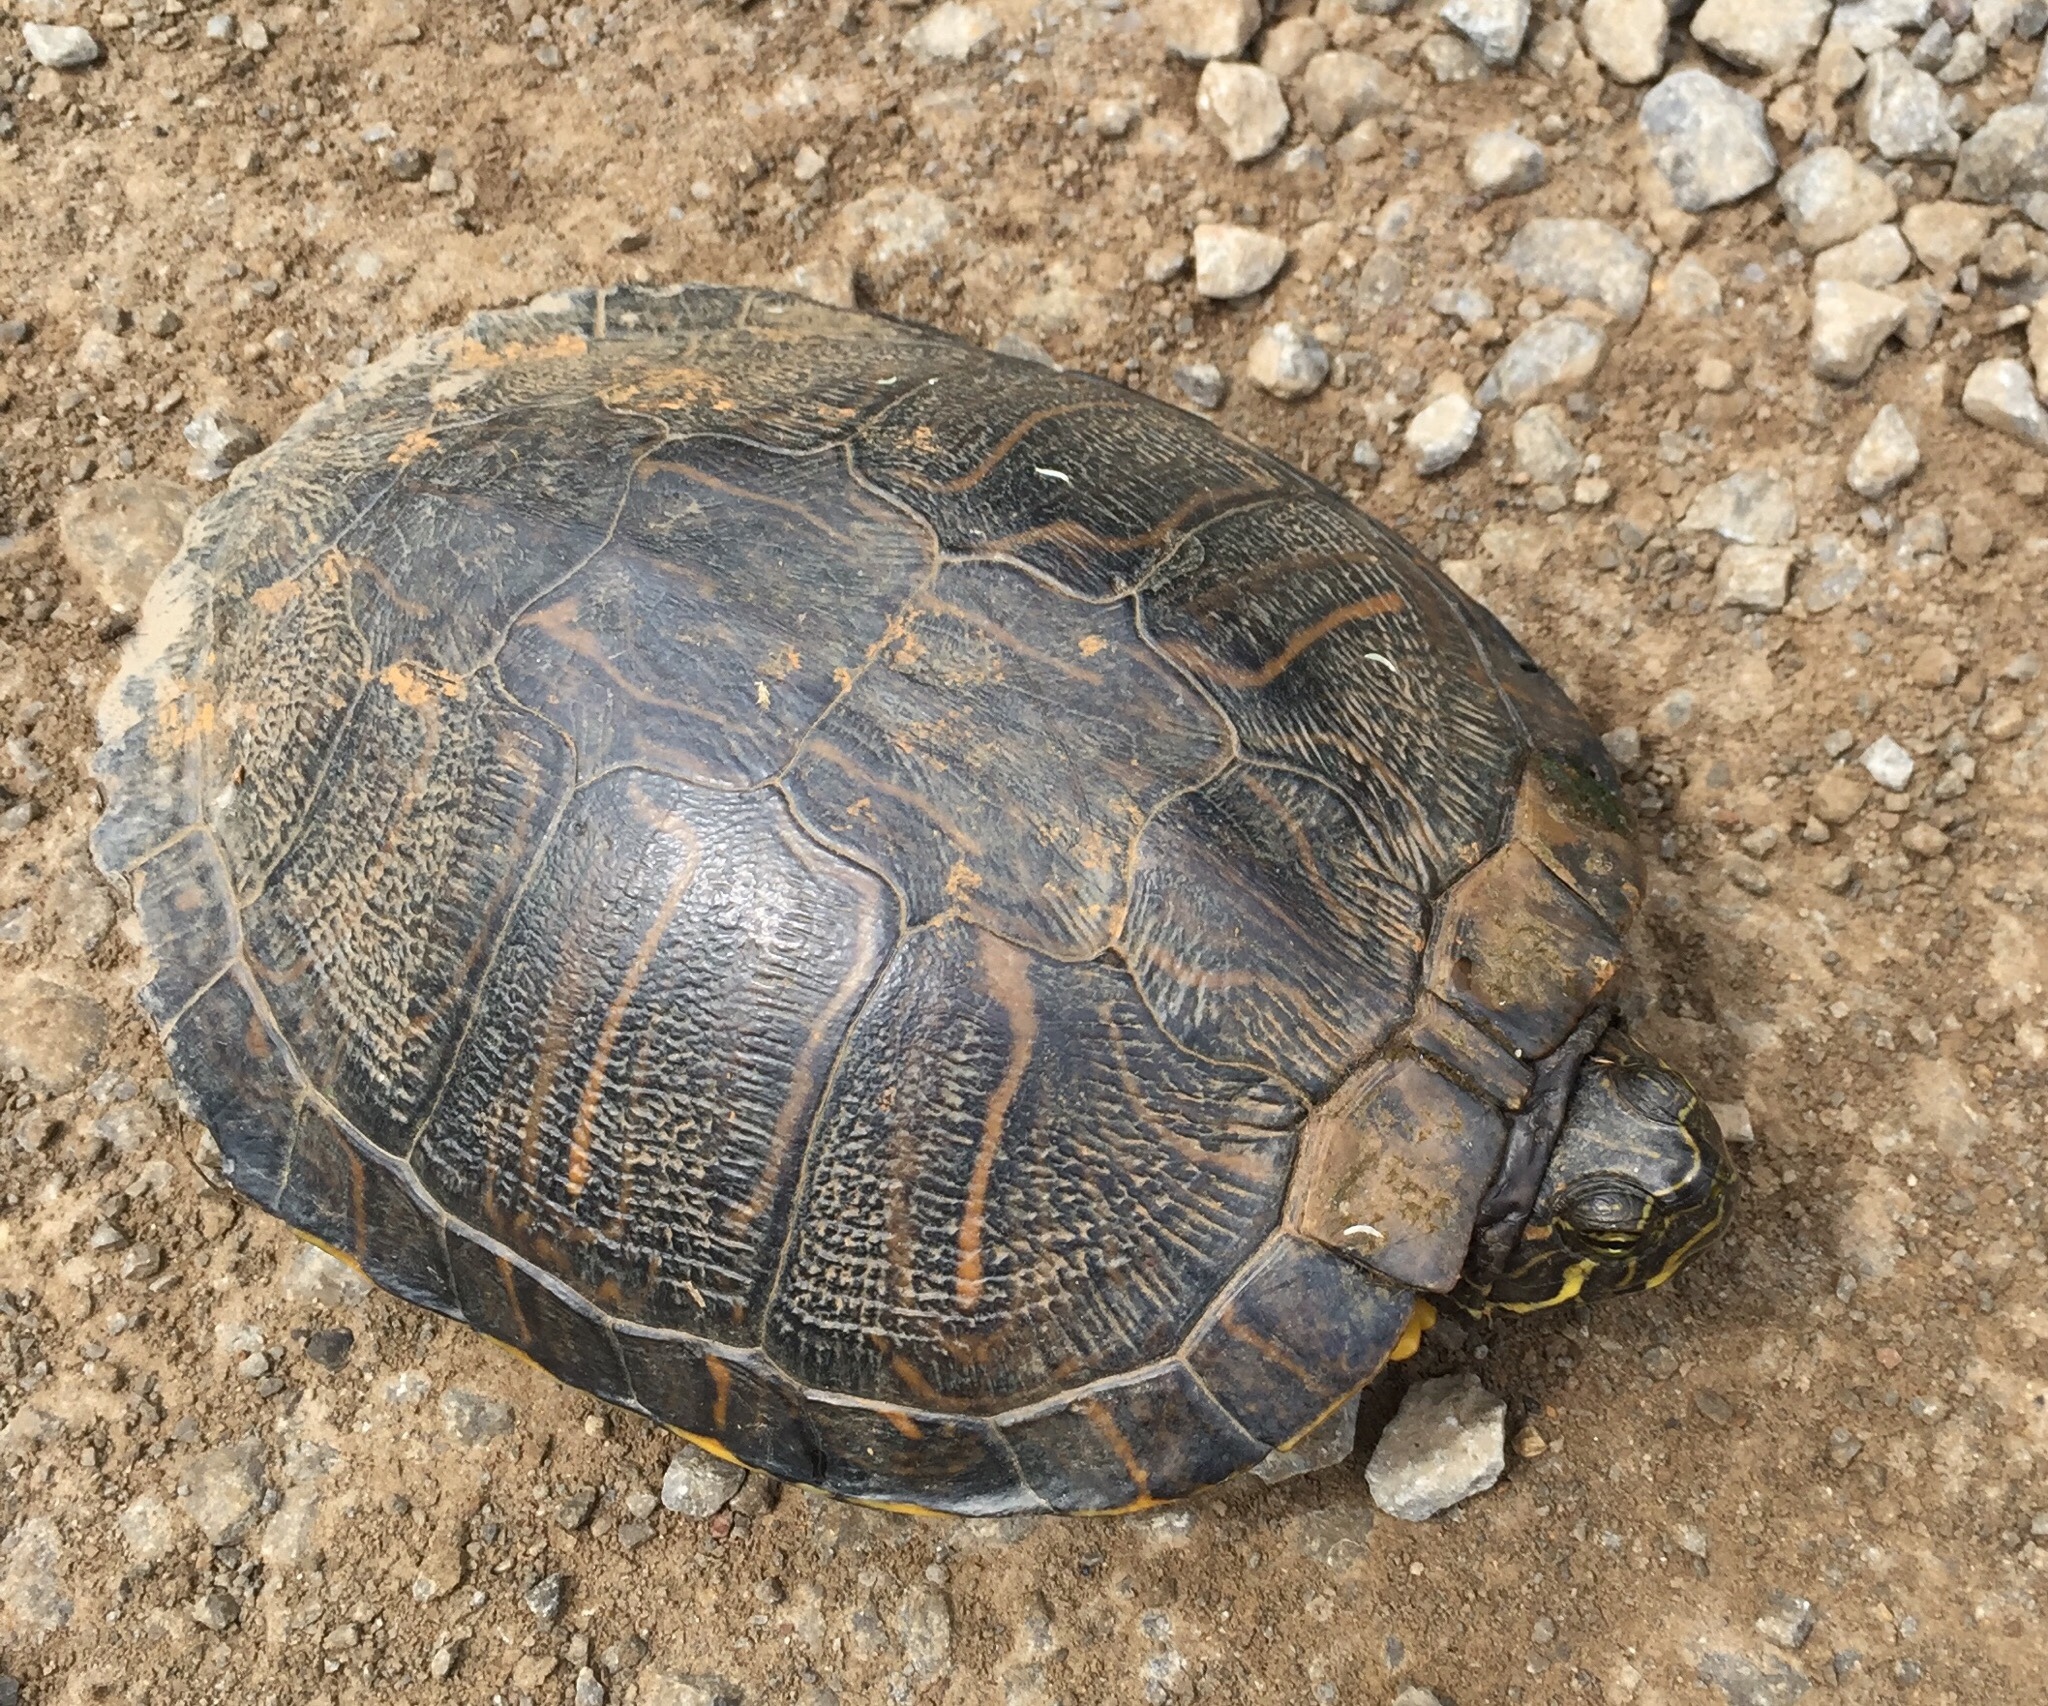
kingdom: Animalia
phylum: Chordata
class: Testudines
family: Emydidae
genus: Trachemys
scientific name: Trachemys scripta
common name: Slider
